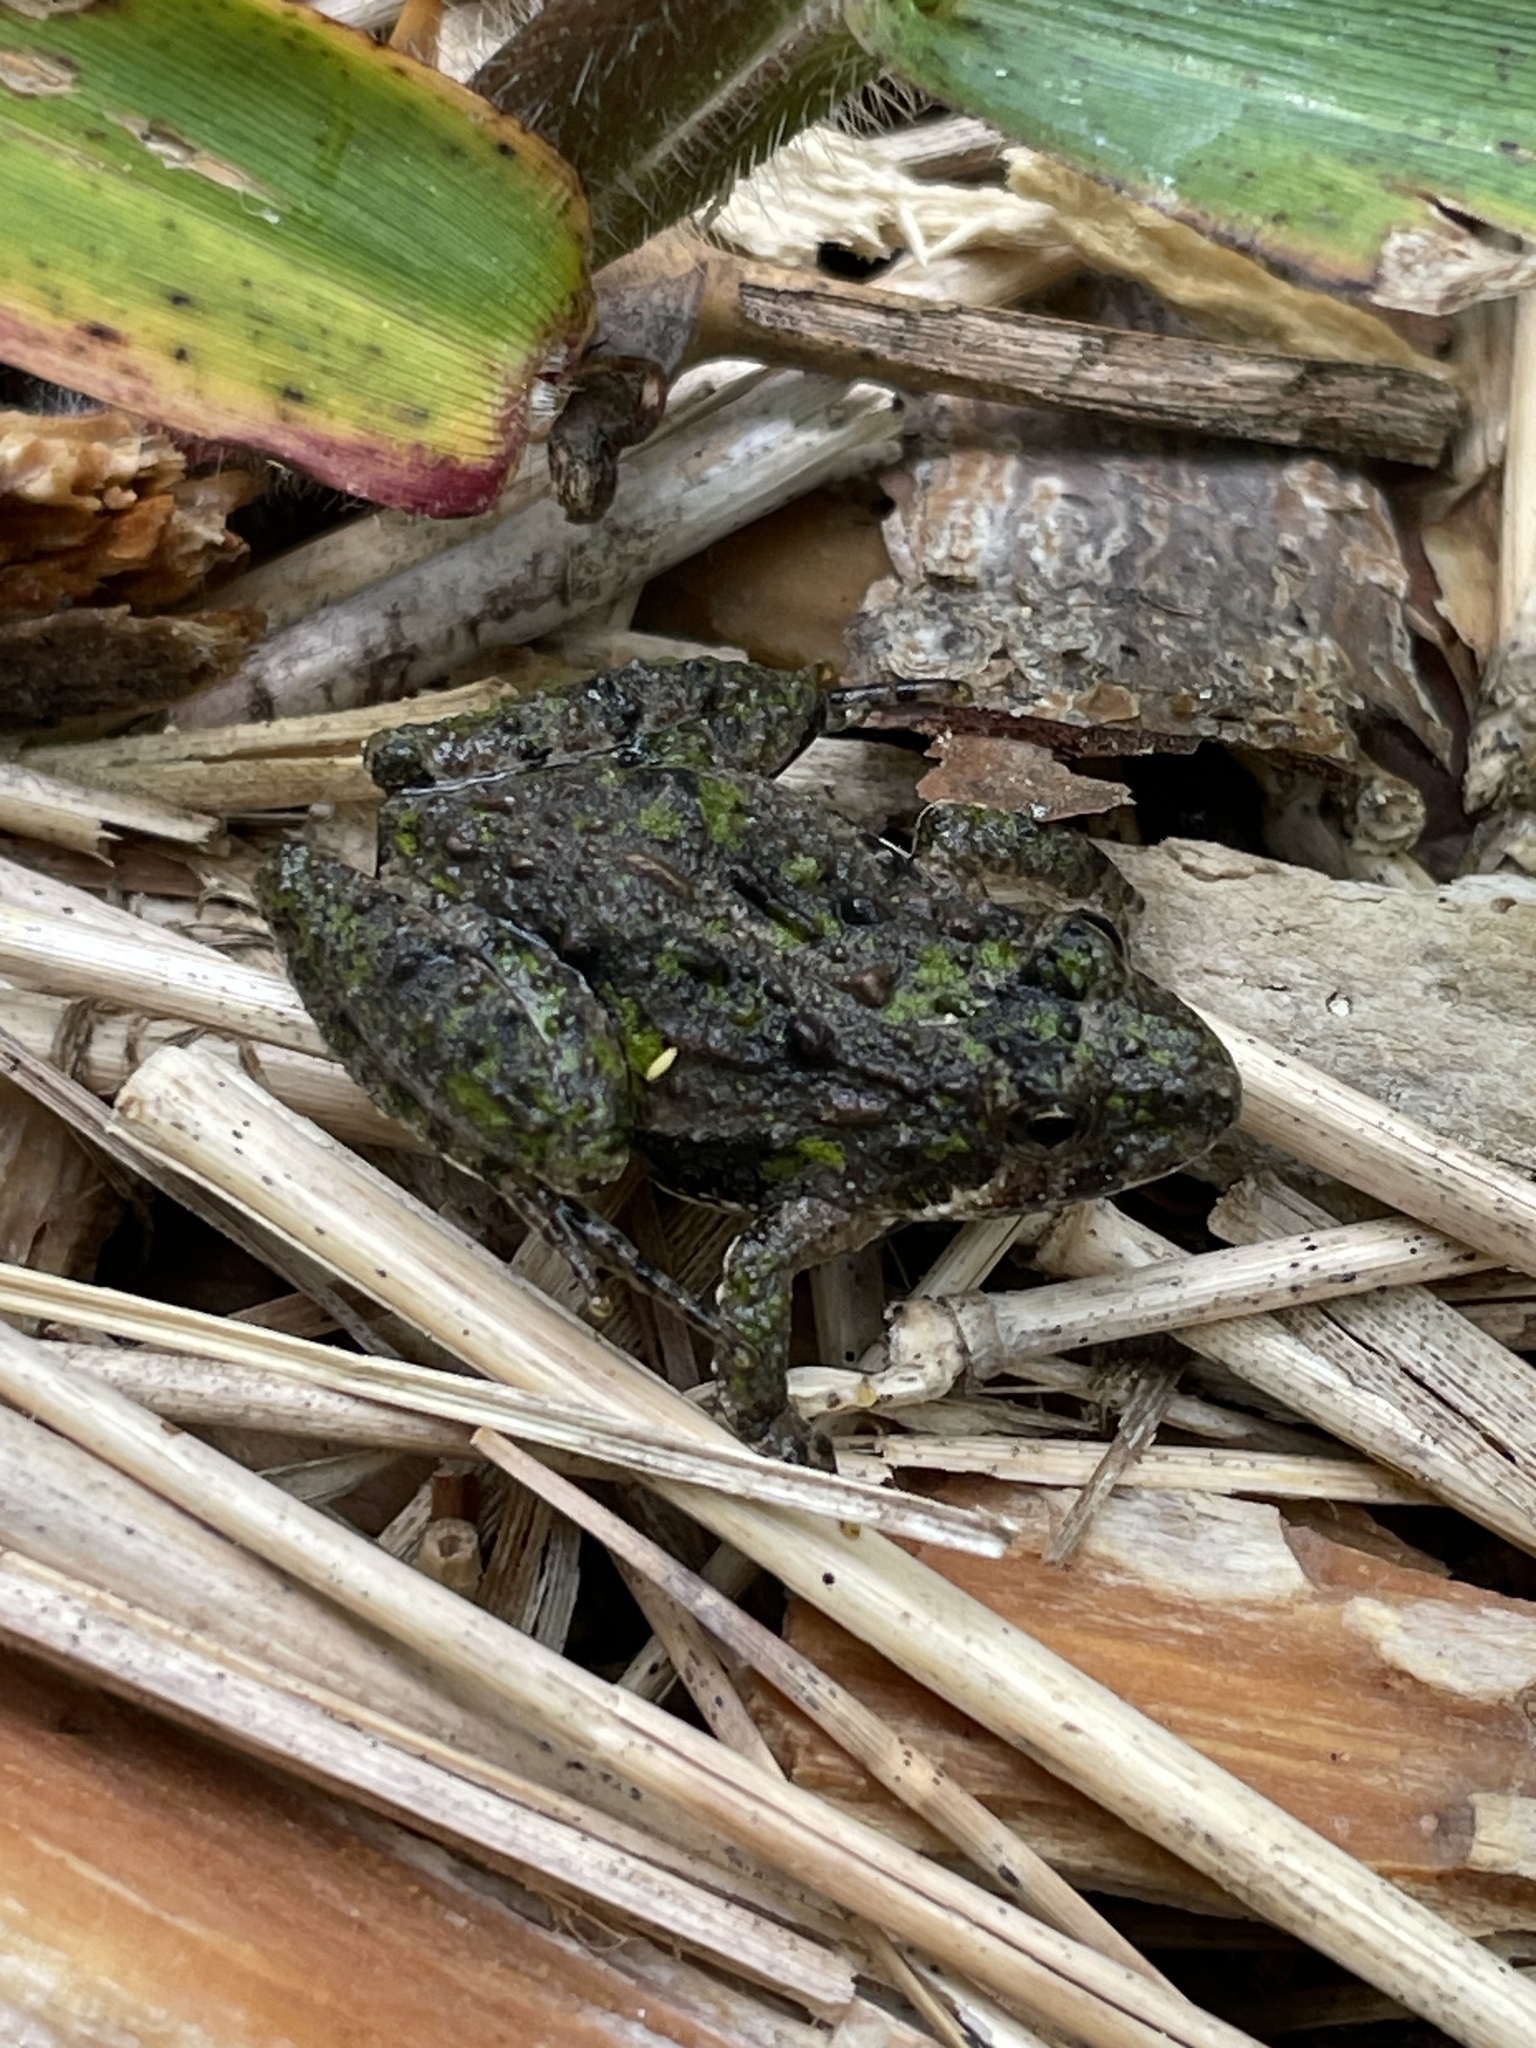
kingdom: Animalia
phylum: Chordata
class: Amphibia
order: Anura
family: Hylidae
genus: Acris
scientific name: Acris crepitans
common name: Northern cricket frog
